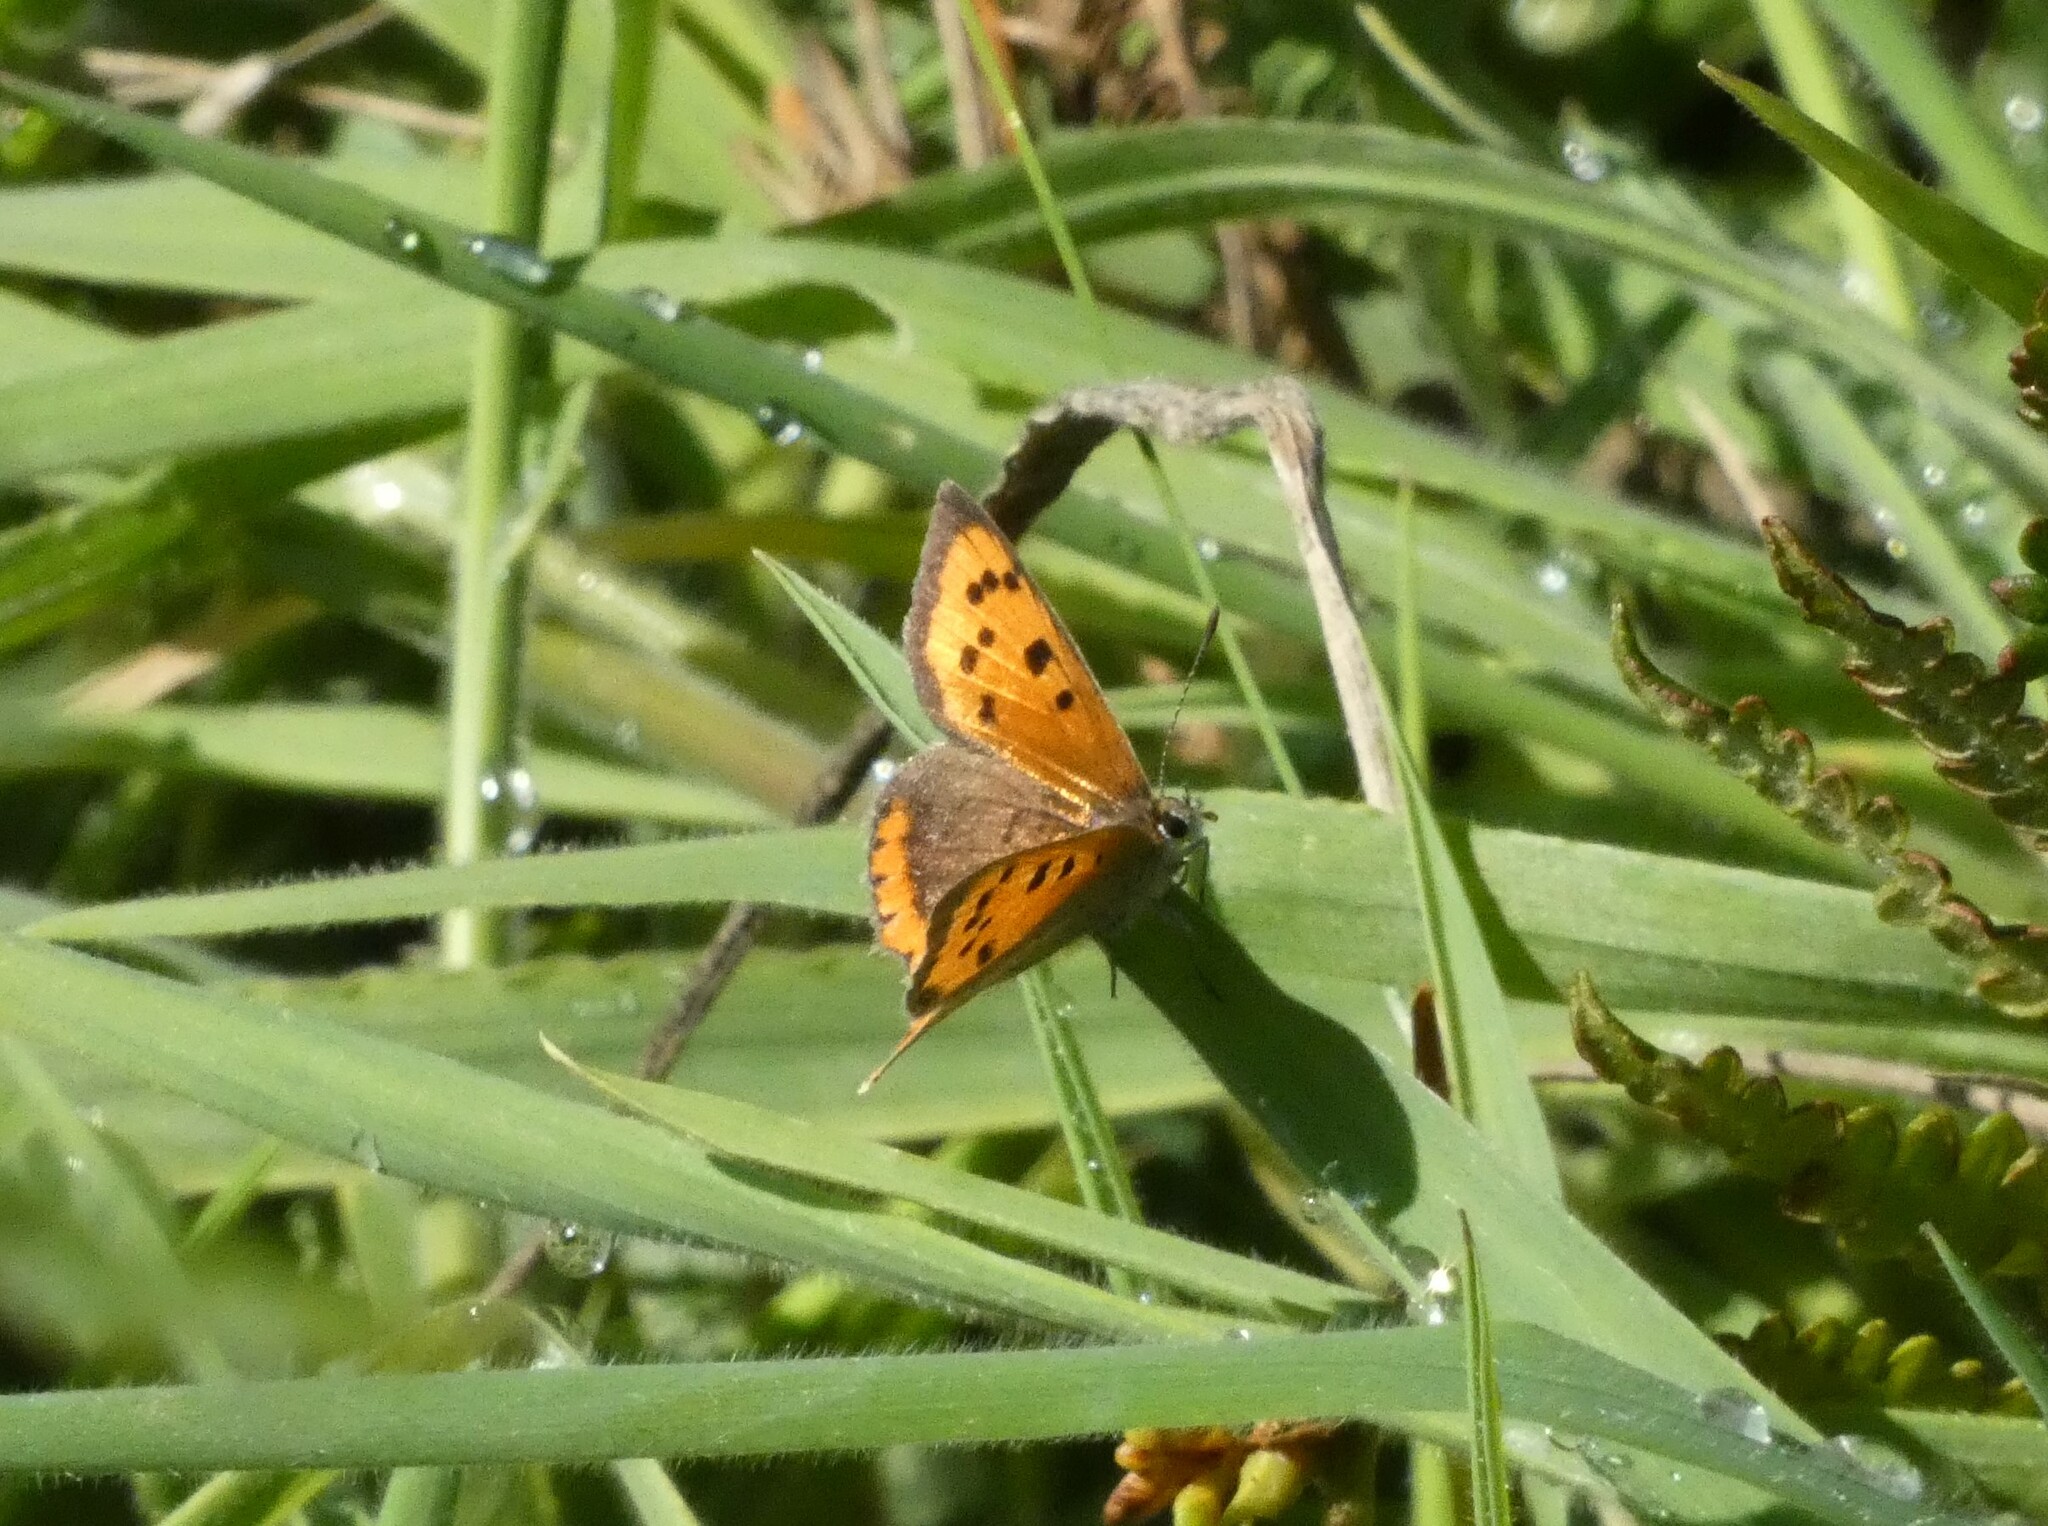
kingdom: Animalia
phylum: Arthropoda
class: Insecta
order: Lepidoptera
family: Lycaenidae
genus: Lycaena
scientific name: Lycaena phlaeas
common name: Small copper
